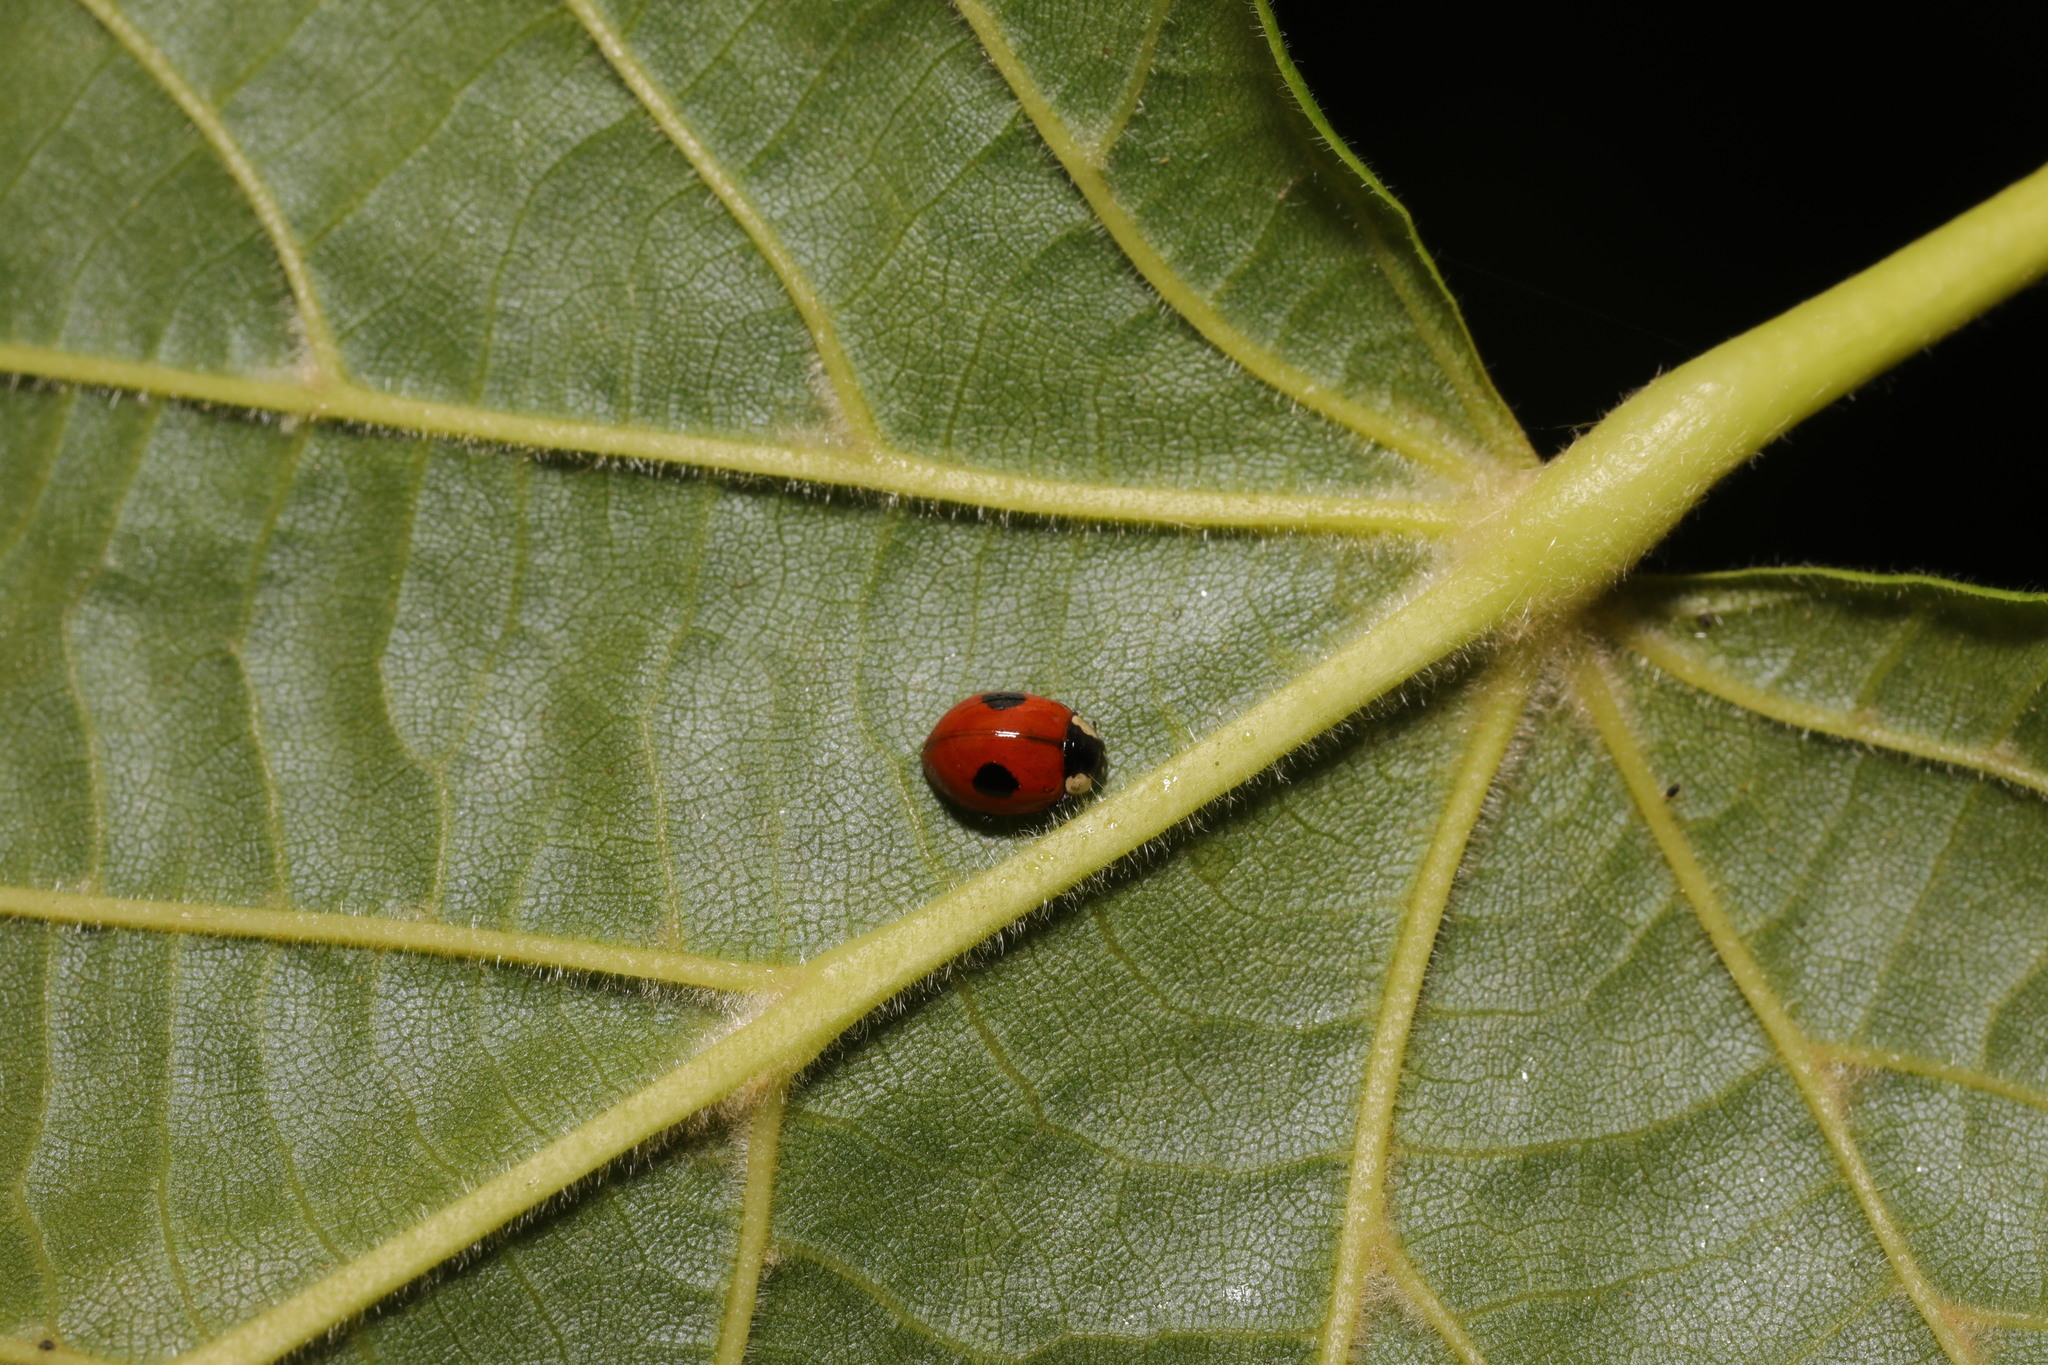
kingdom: Animalia
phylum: Arthropoda
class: Insecta
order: Coleoptera
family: Coccinellidae
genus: Adalia
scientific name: Adalia bipunctata
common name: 2-spot ladybird
